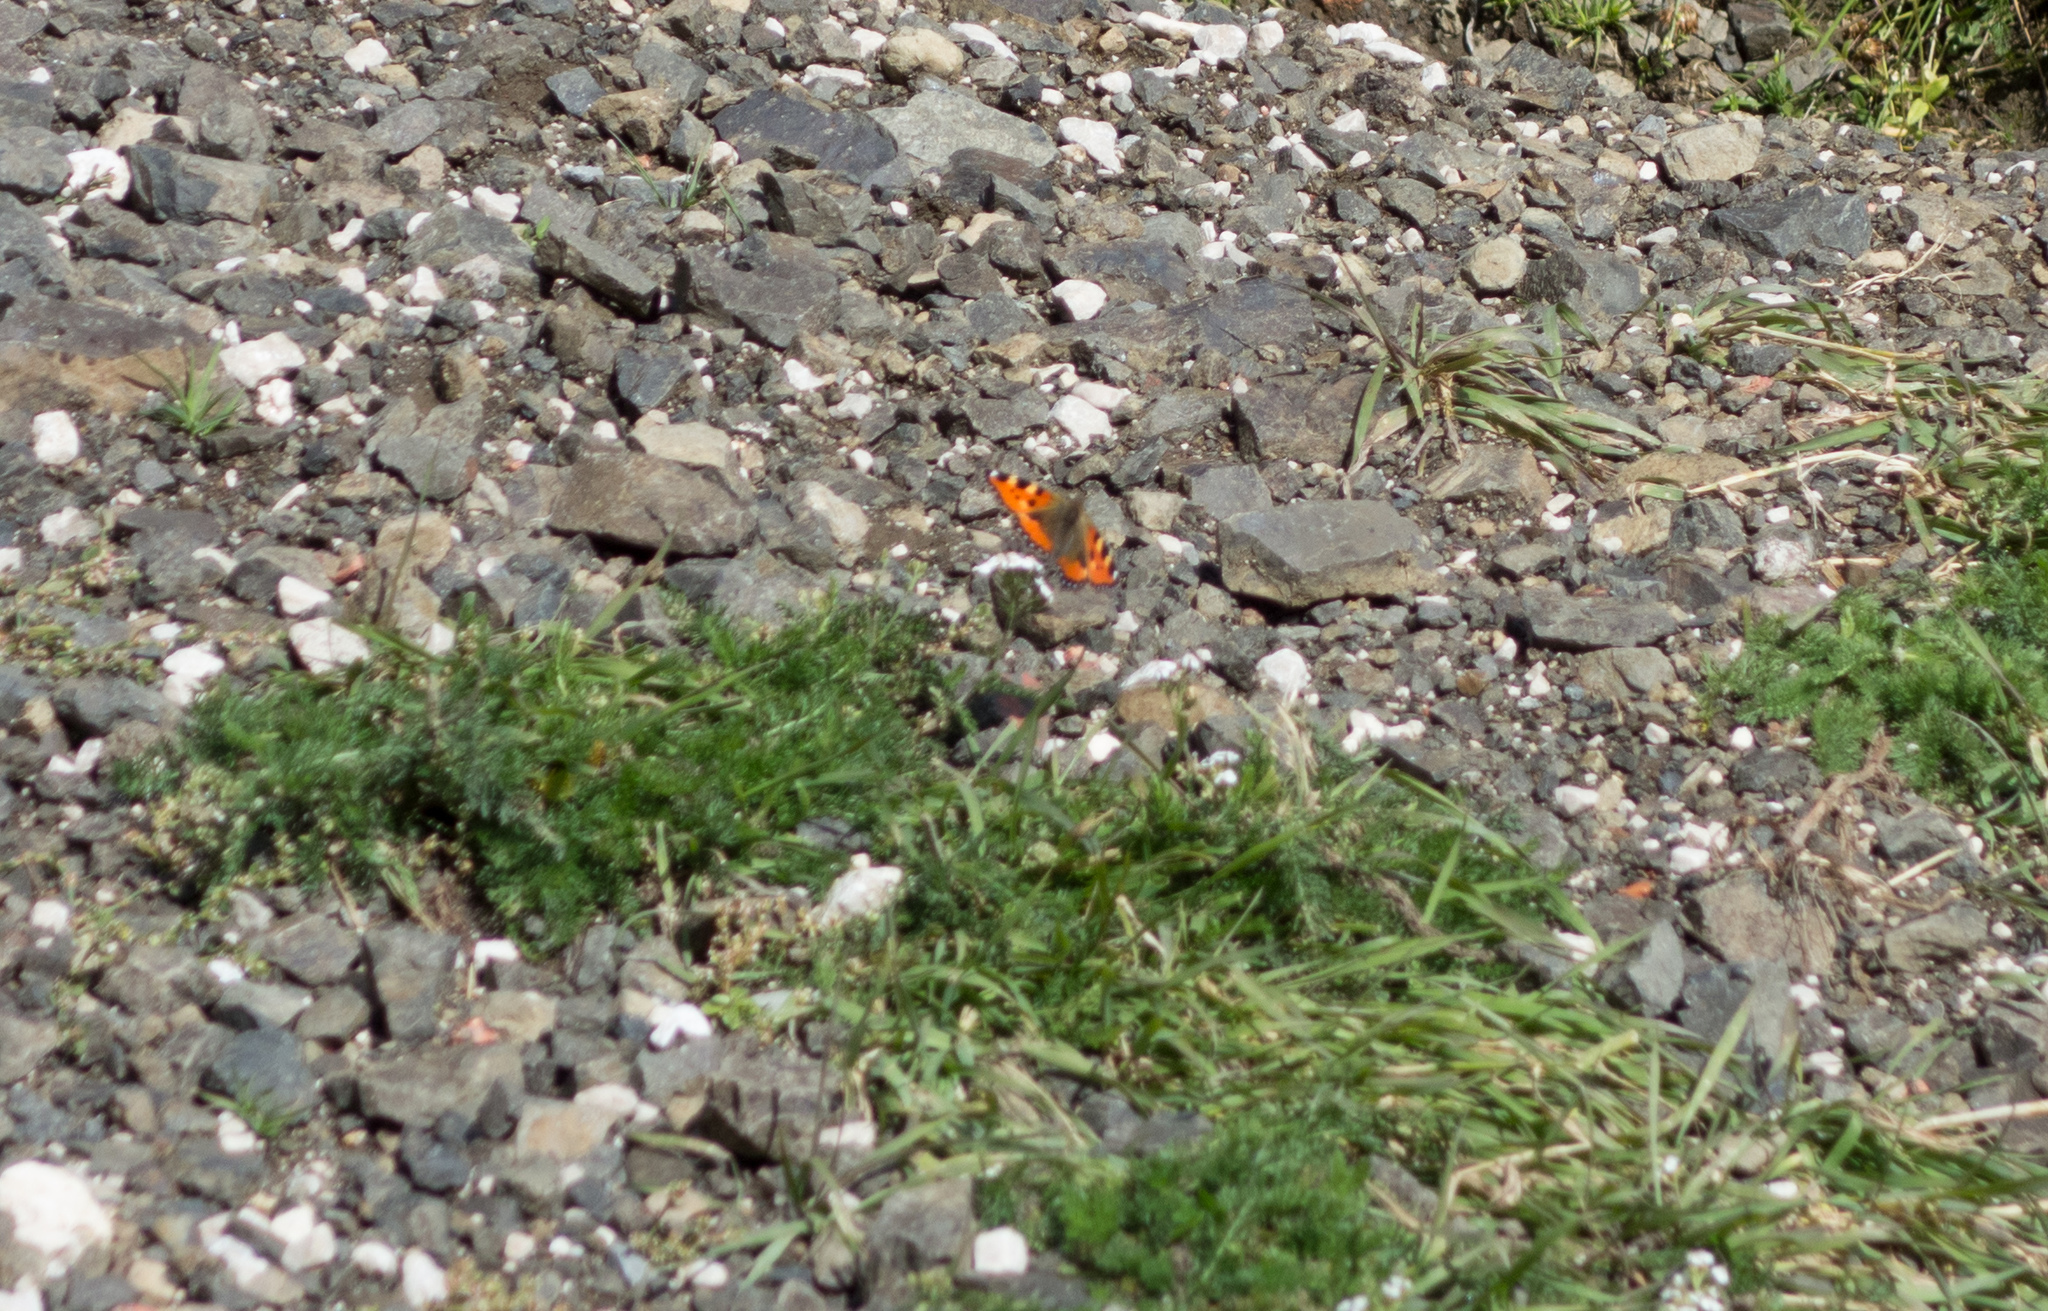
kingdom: Animalia
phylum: Arthropoda
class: Insecta
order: Lepidoptera
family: Nymphalidae
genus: Aglais
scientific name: Aglais urticae
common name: Small tortoiseshell
